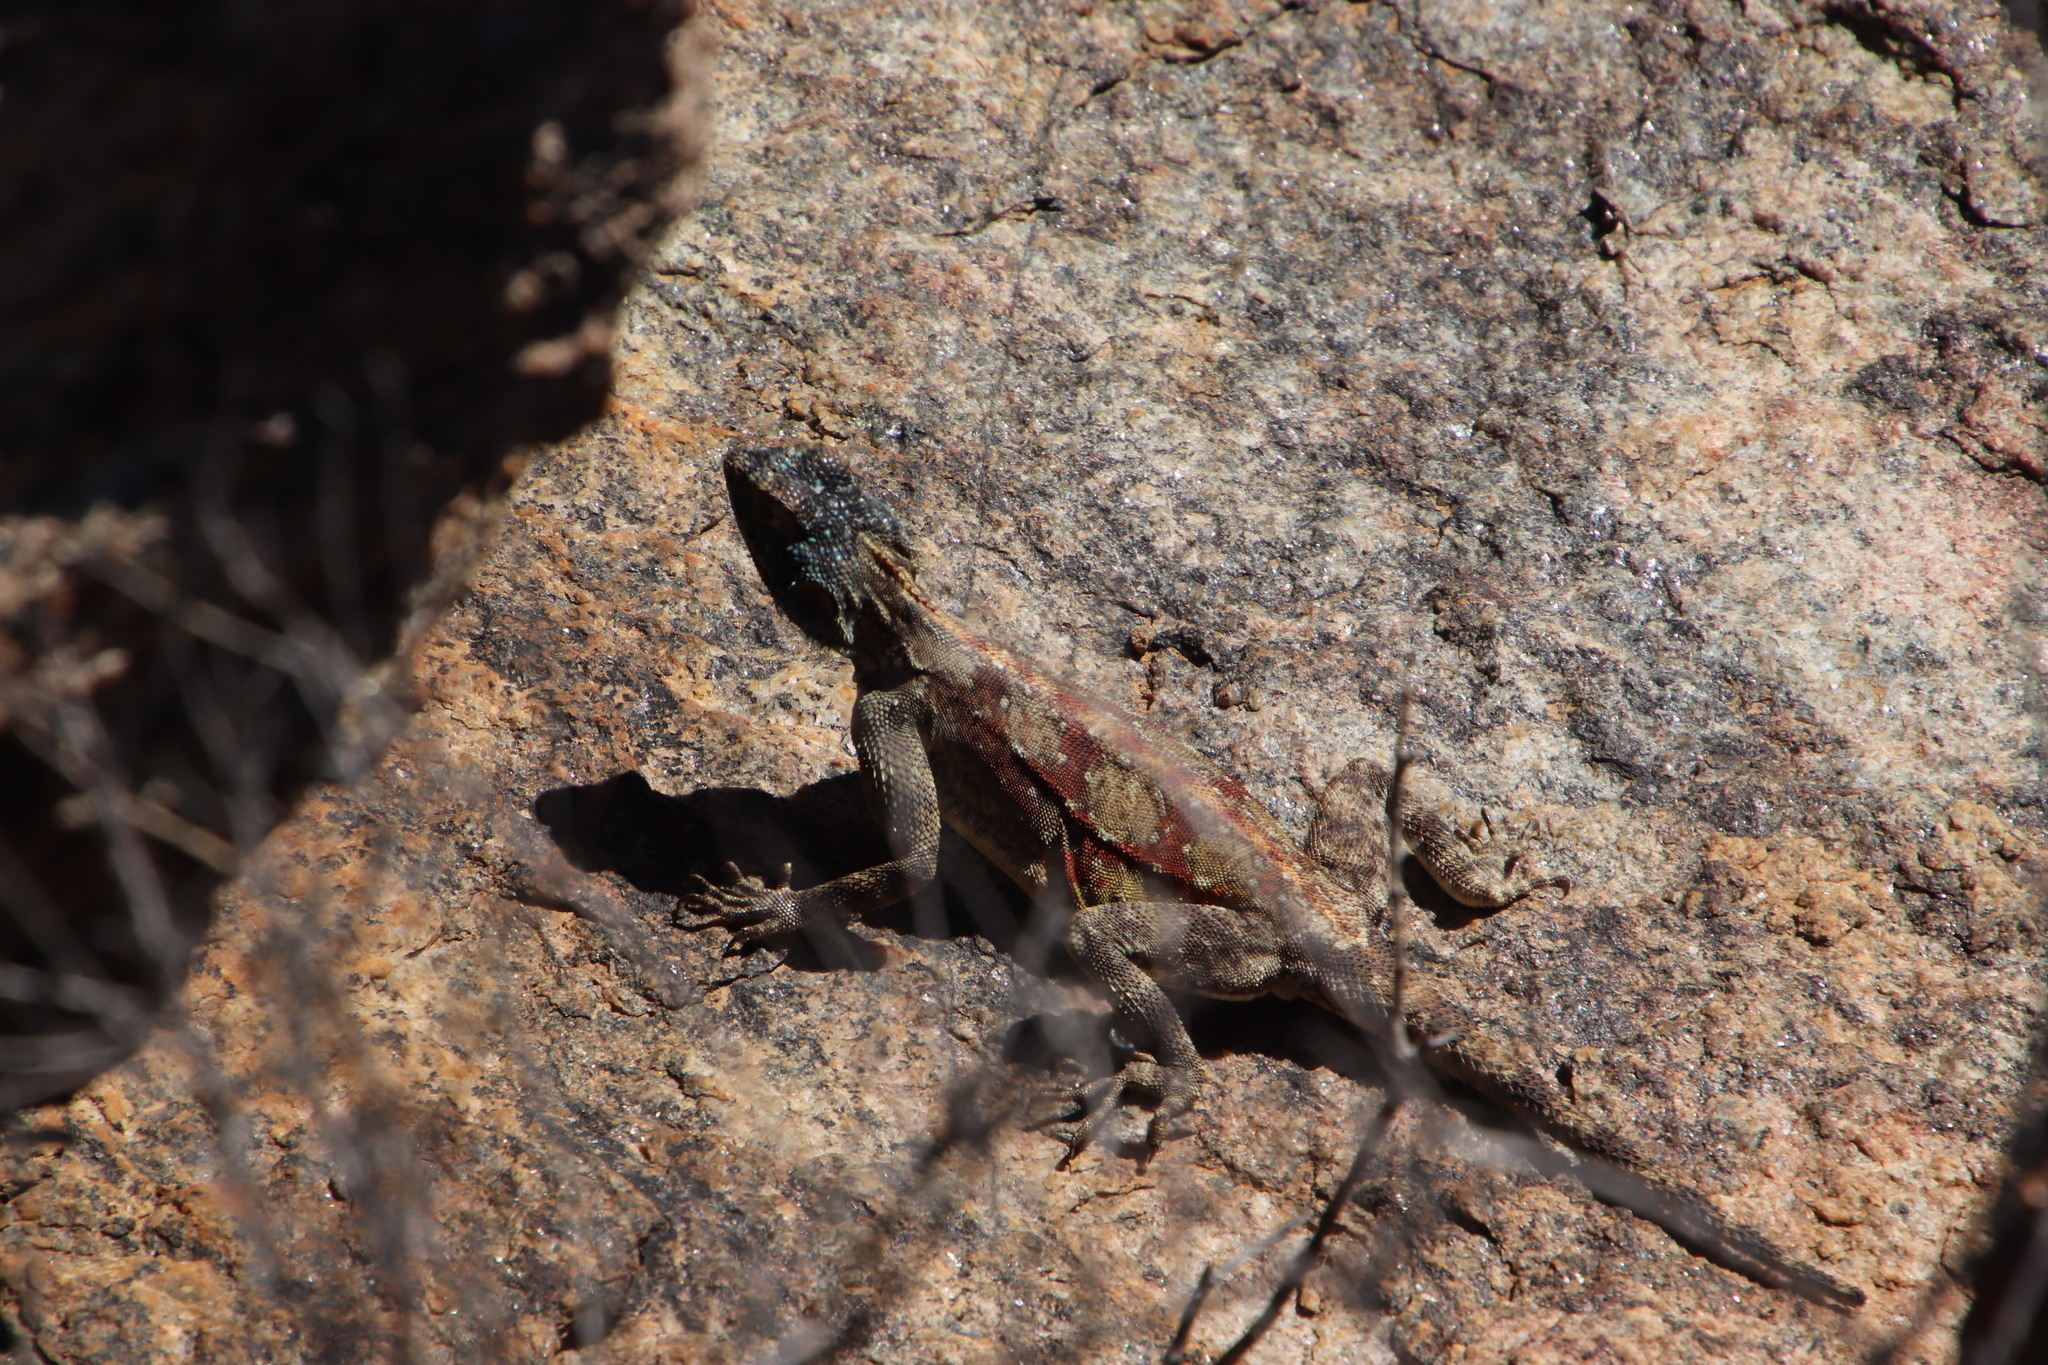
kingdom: Animalia
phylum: Chordata
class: Squamata
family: Agamidae
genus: Agama
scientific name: Agama atra
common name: Southern african rock agama
